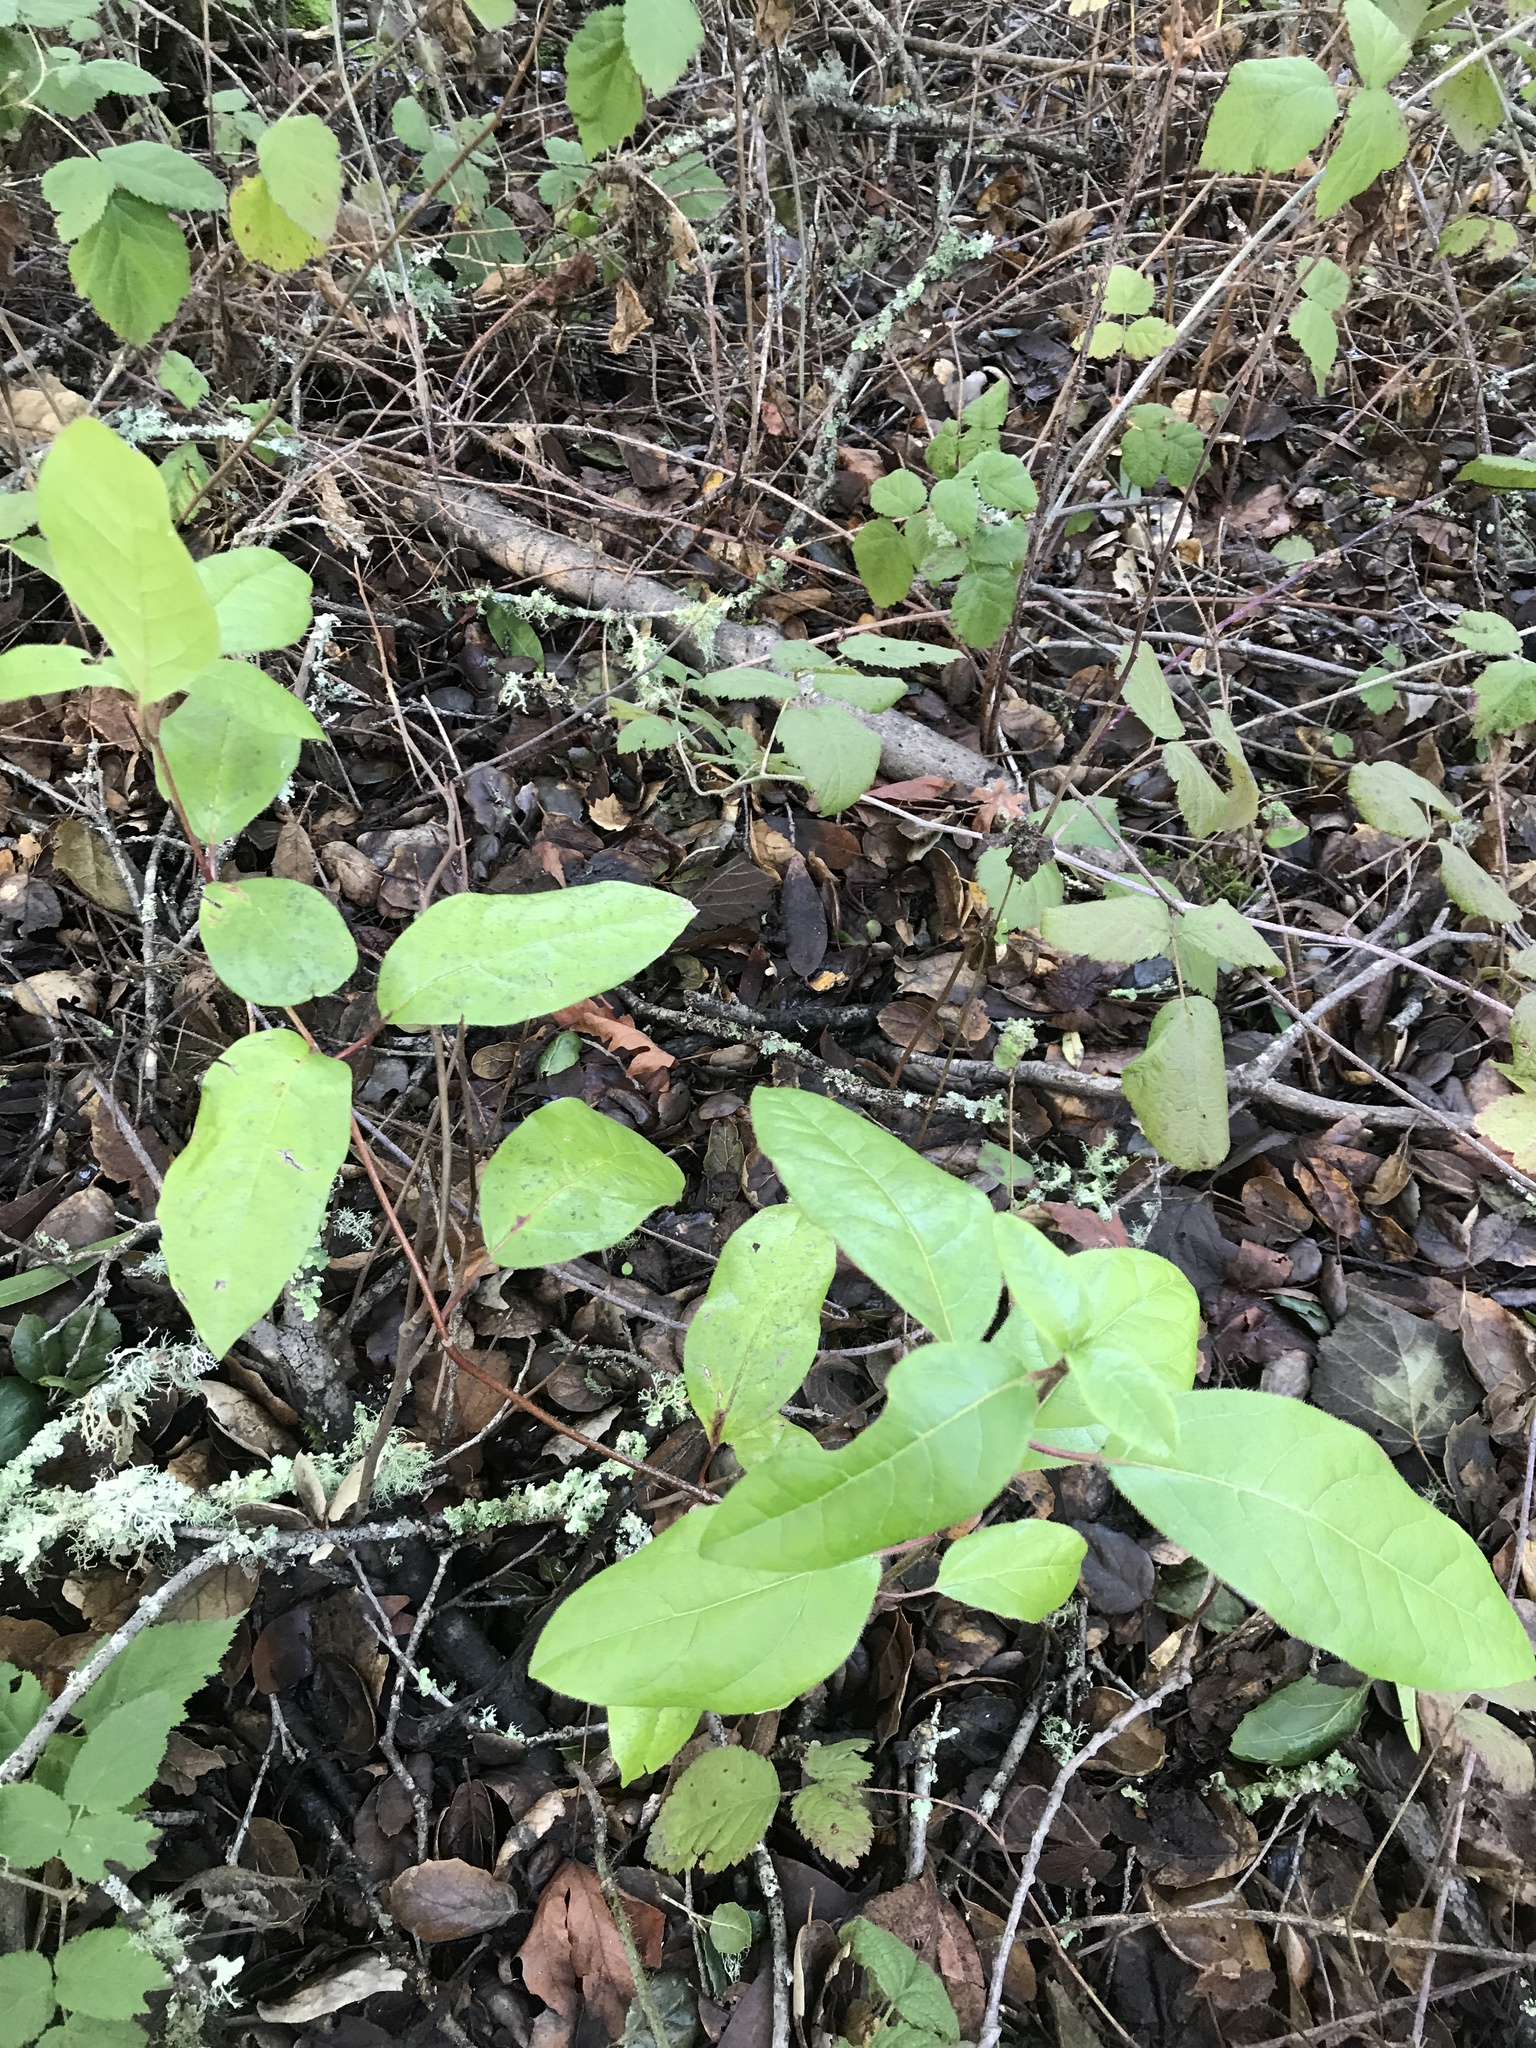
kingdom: Plantae
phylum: Tracheophyta
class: Magnoliopsida
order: Dipsacales
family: Caprifoliaceae
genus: Lonicera
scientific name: Lonicera involucrata
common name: Californian honeysuckle
